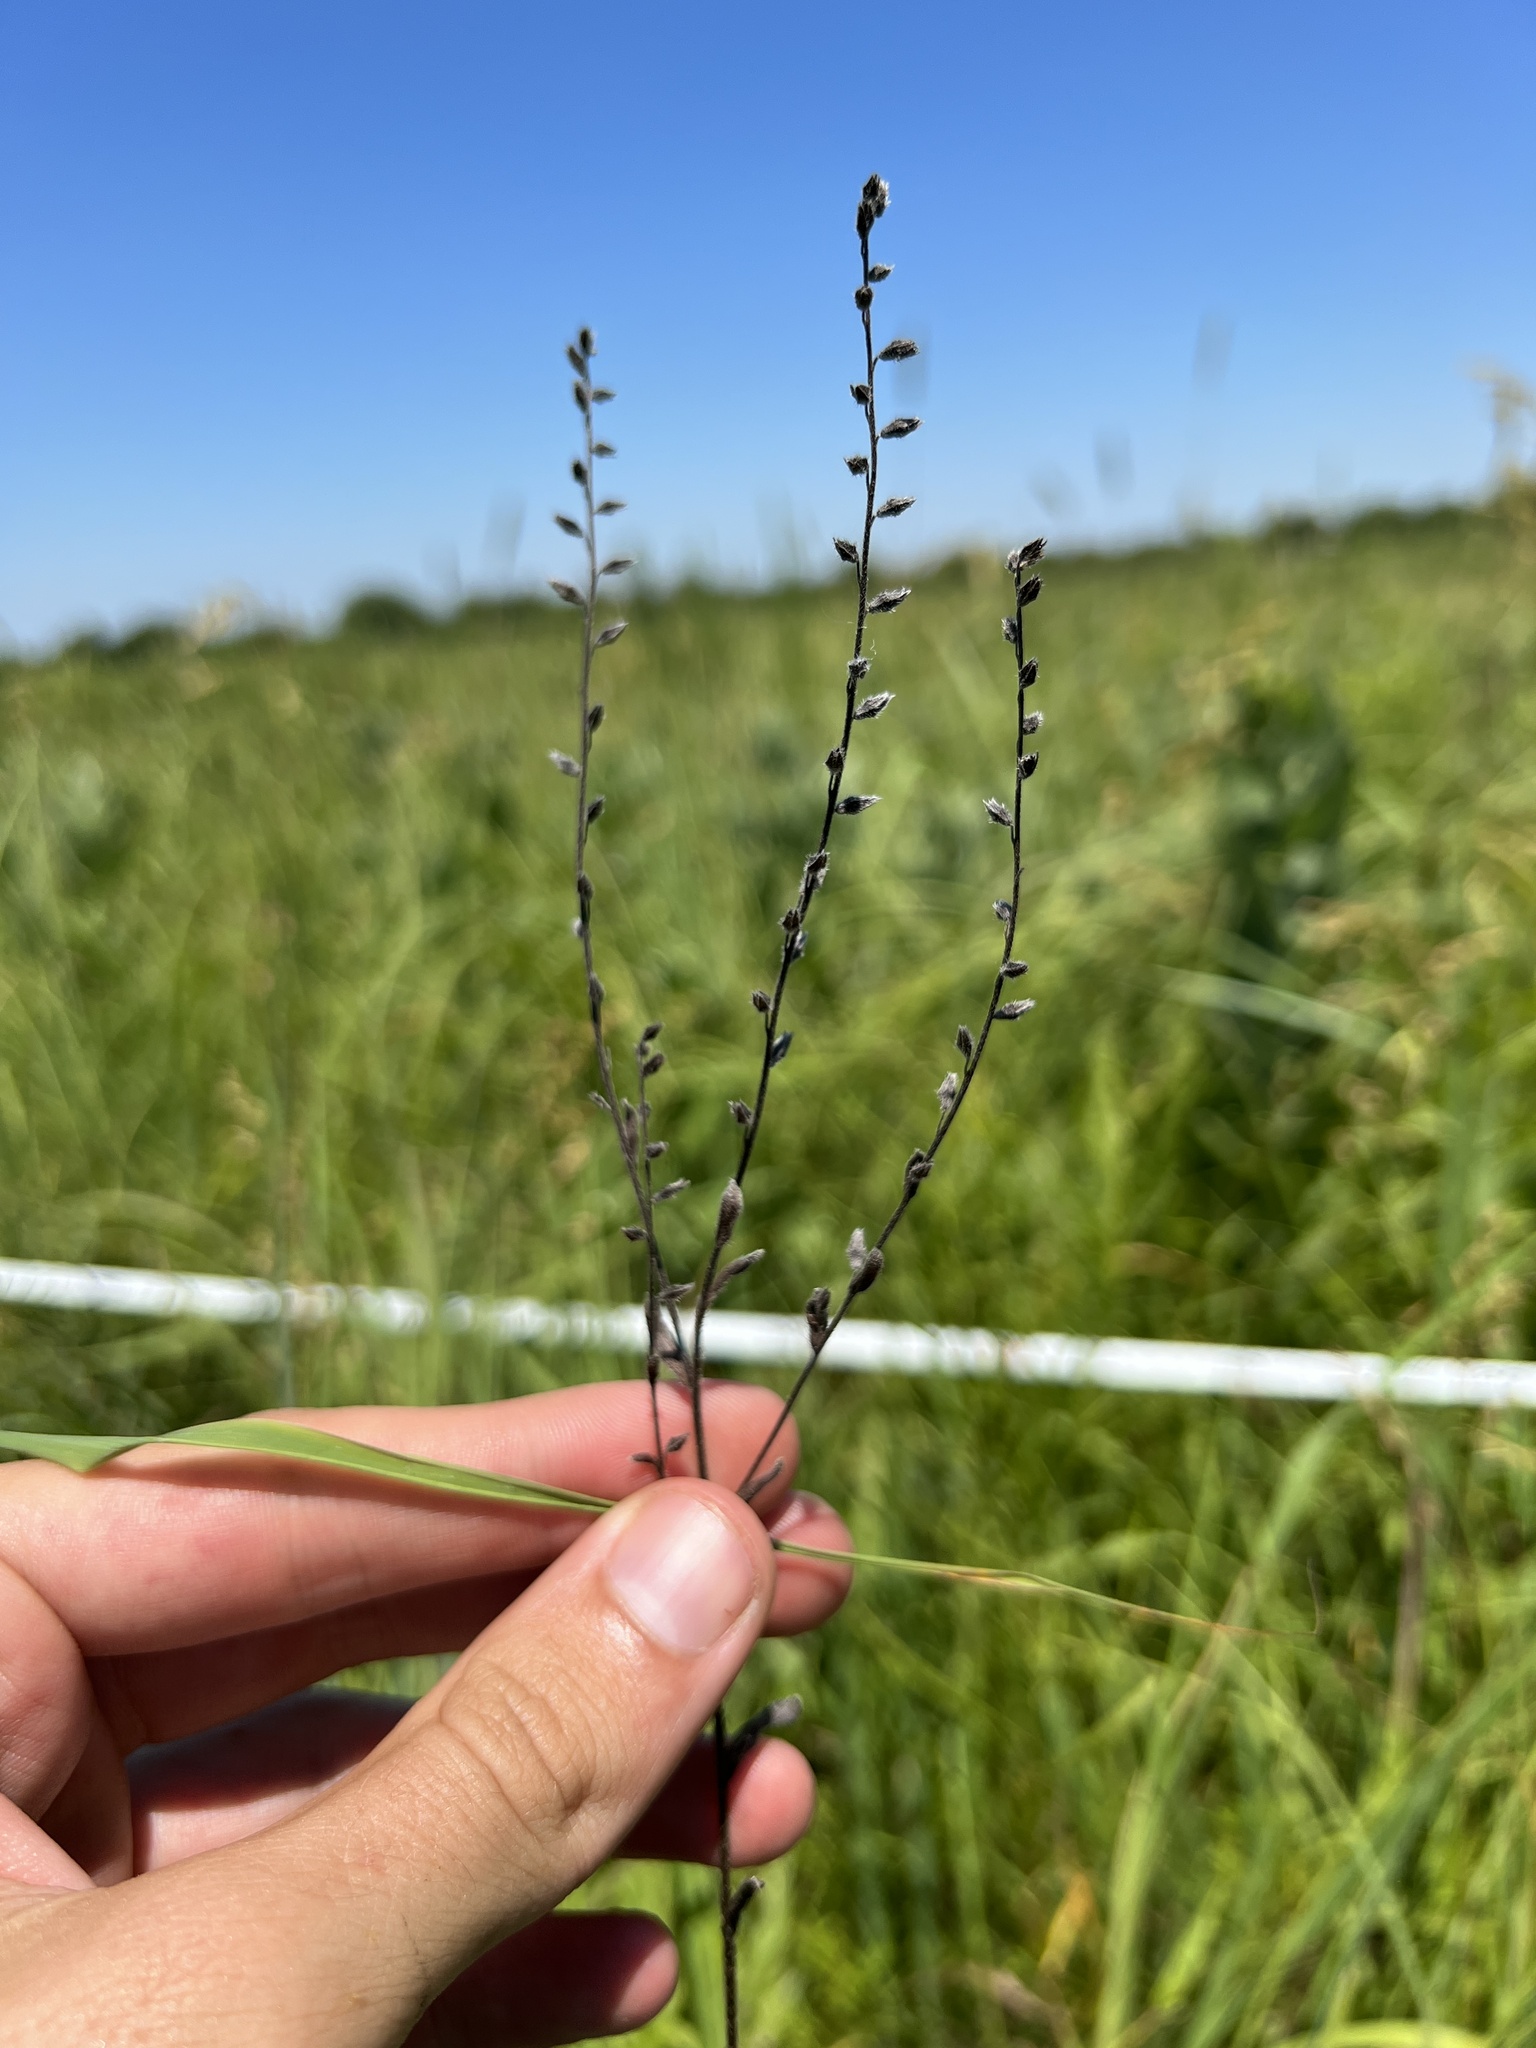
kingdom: Plantae
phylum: Tracheophyta
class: Magnoliopsida
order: Boraginales
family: Boraginaceae
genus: Myosotis
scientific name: Myosotis verna
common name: Early forget-me-not
